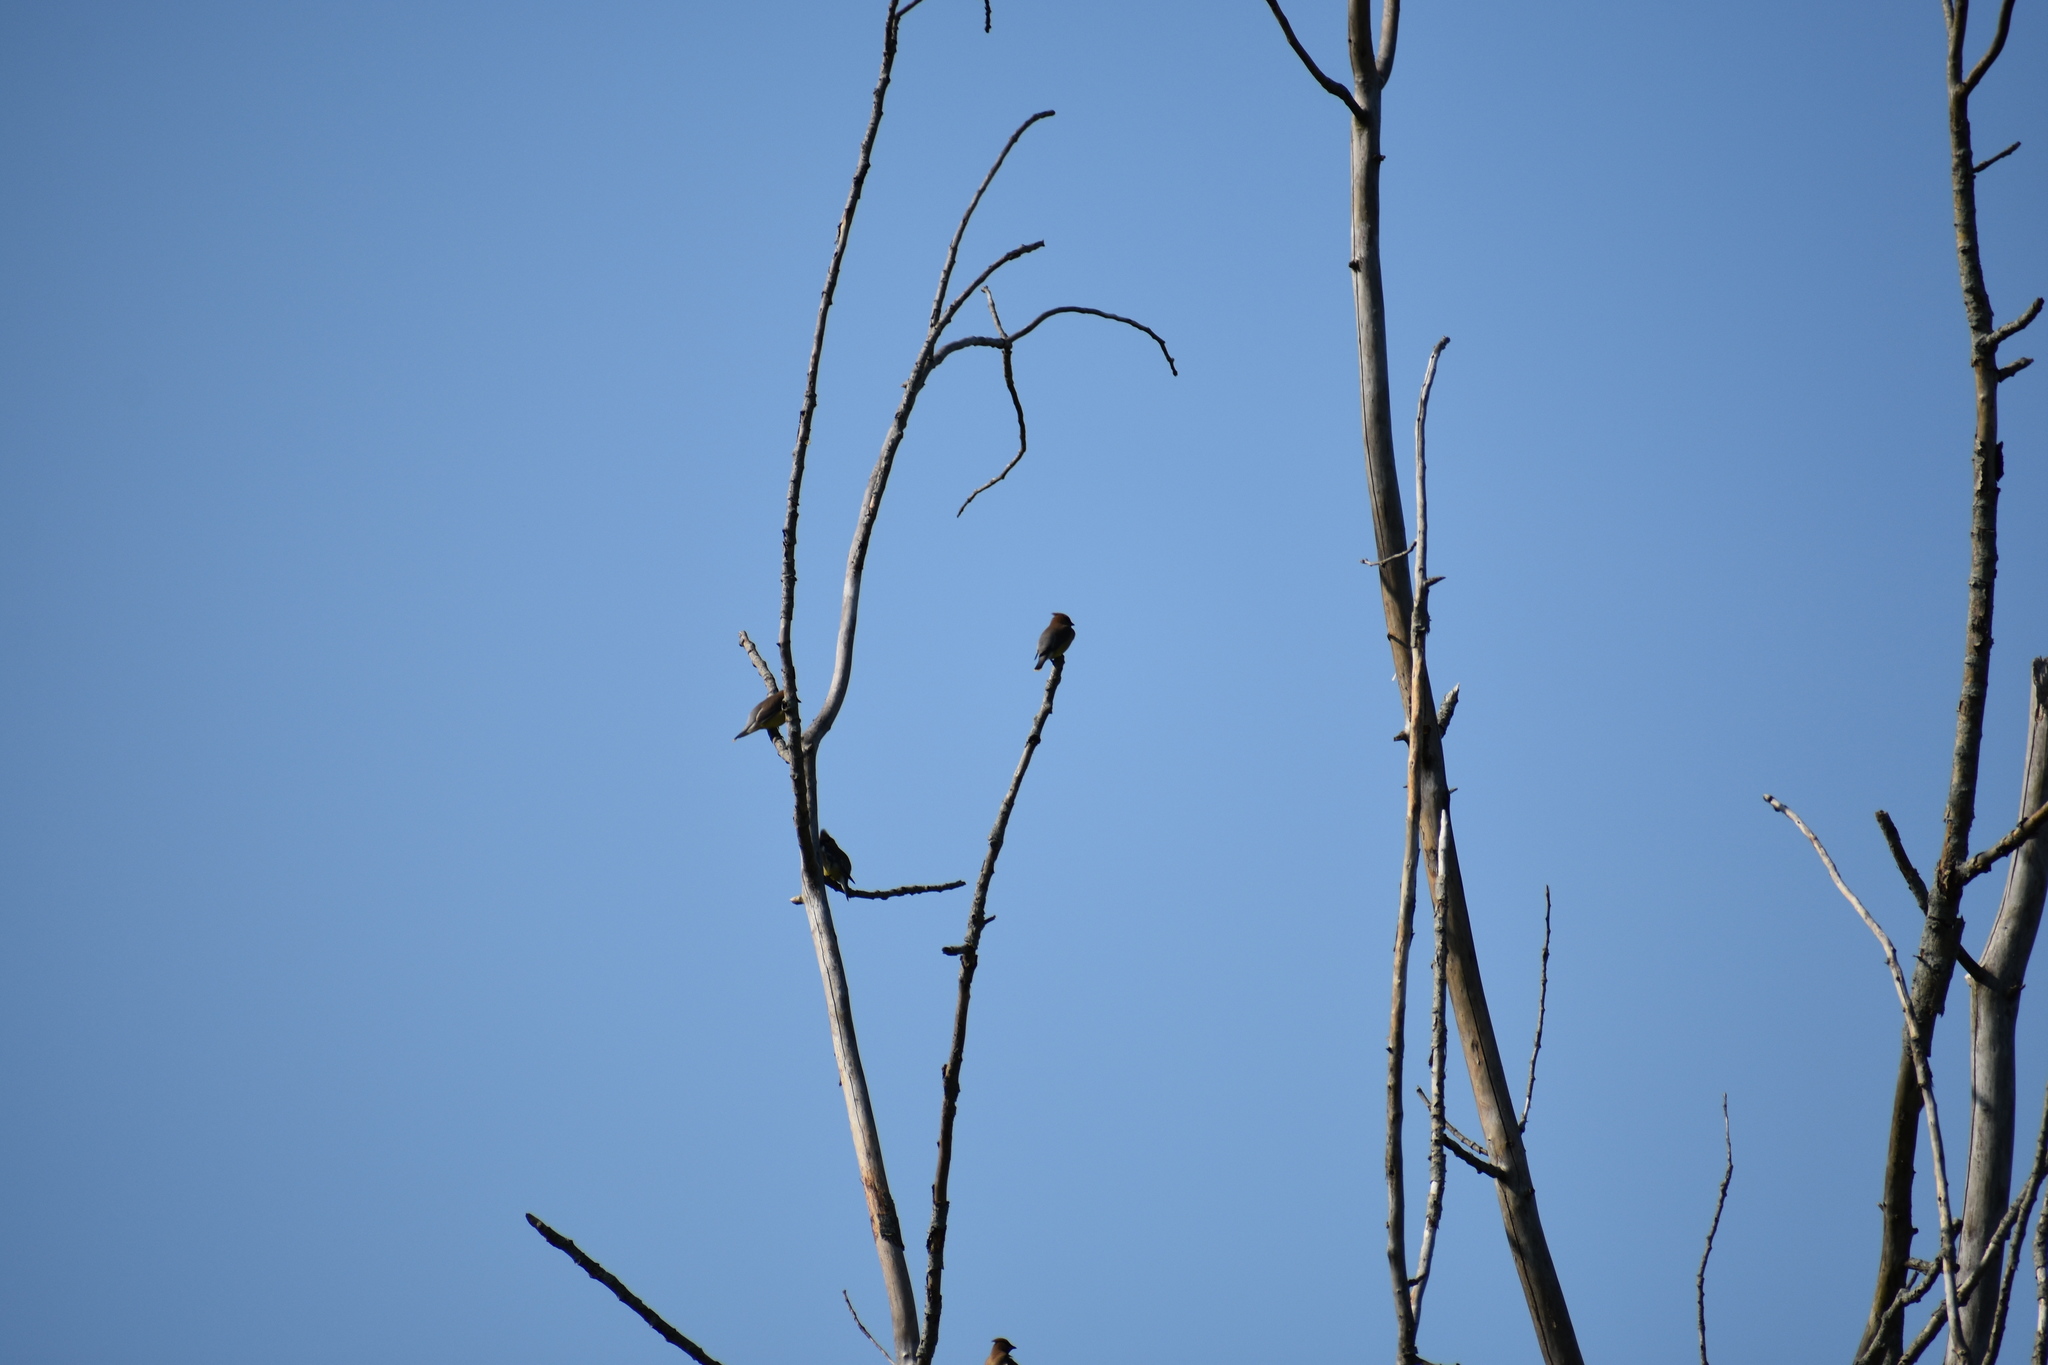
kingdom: Animalia
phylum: Chordata
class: Aves
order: Passeriformes
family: Bombycillidae
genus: Bombycilla
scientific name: Bombycilla cedrorum
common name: Cedar waxwing
